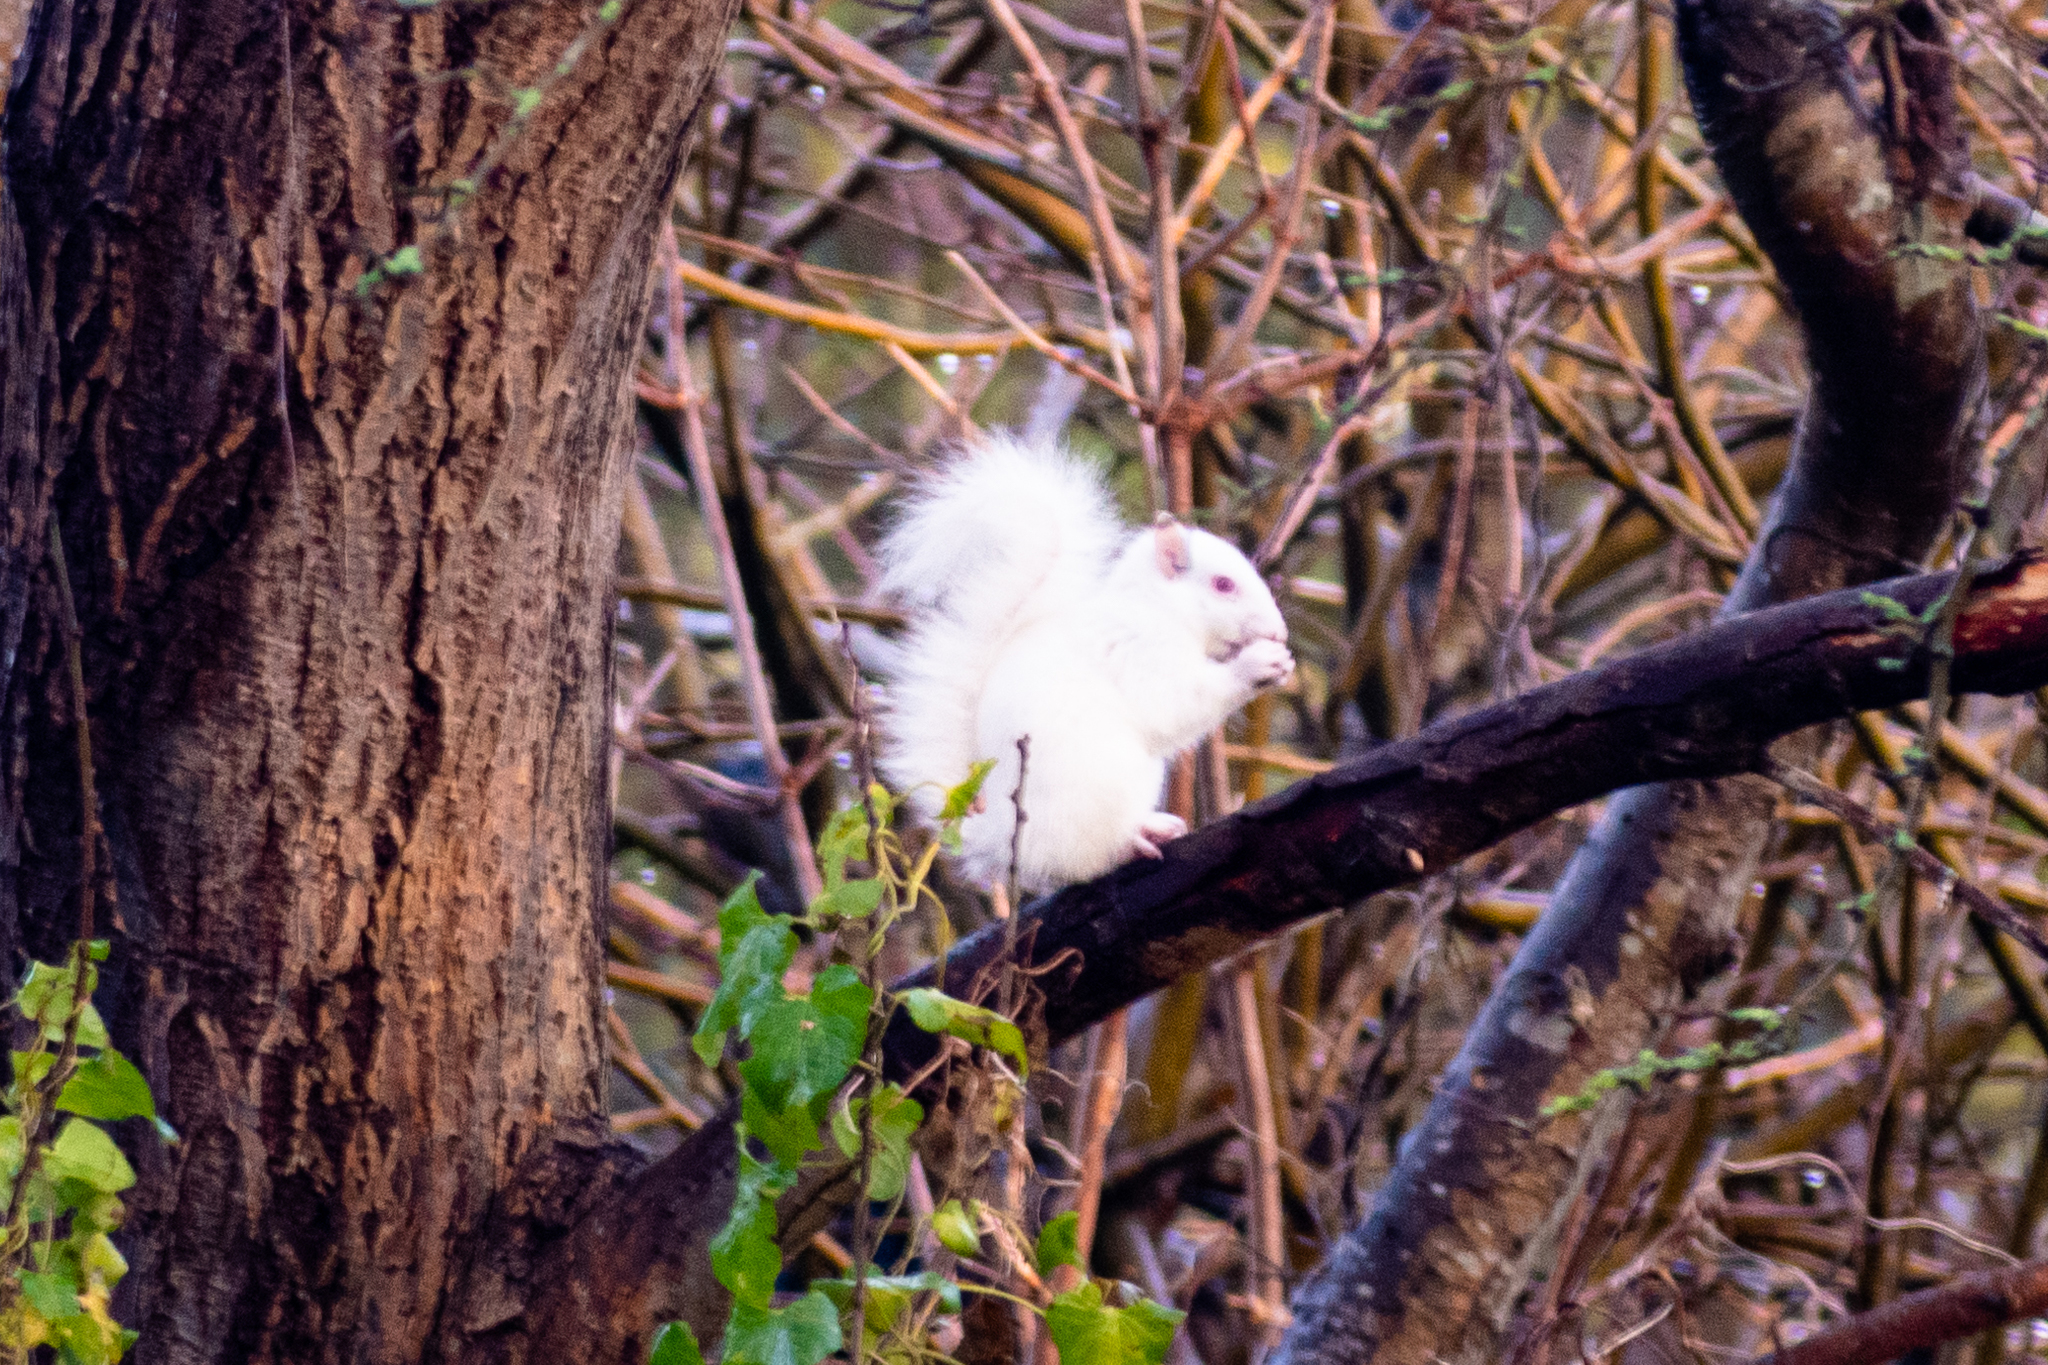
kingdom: Animalia
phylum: Chordata
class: Mammalia
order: Rodentia
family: Sciuridae
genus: Sciurus
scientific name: Sciurus carolinensis
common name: Eastern gray squirrel
